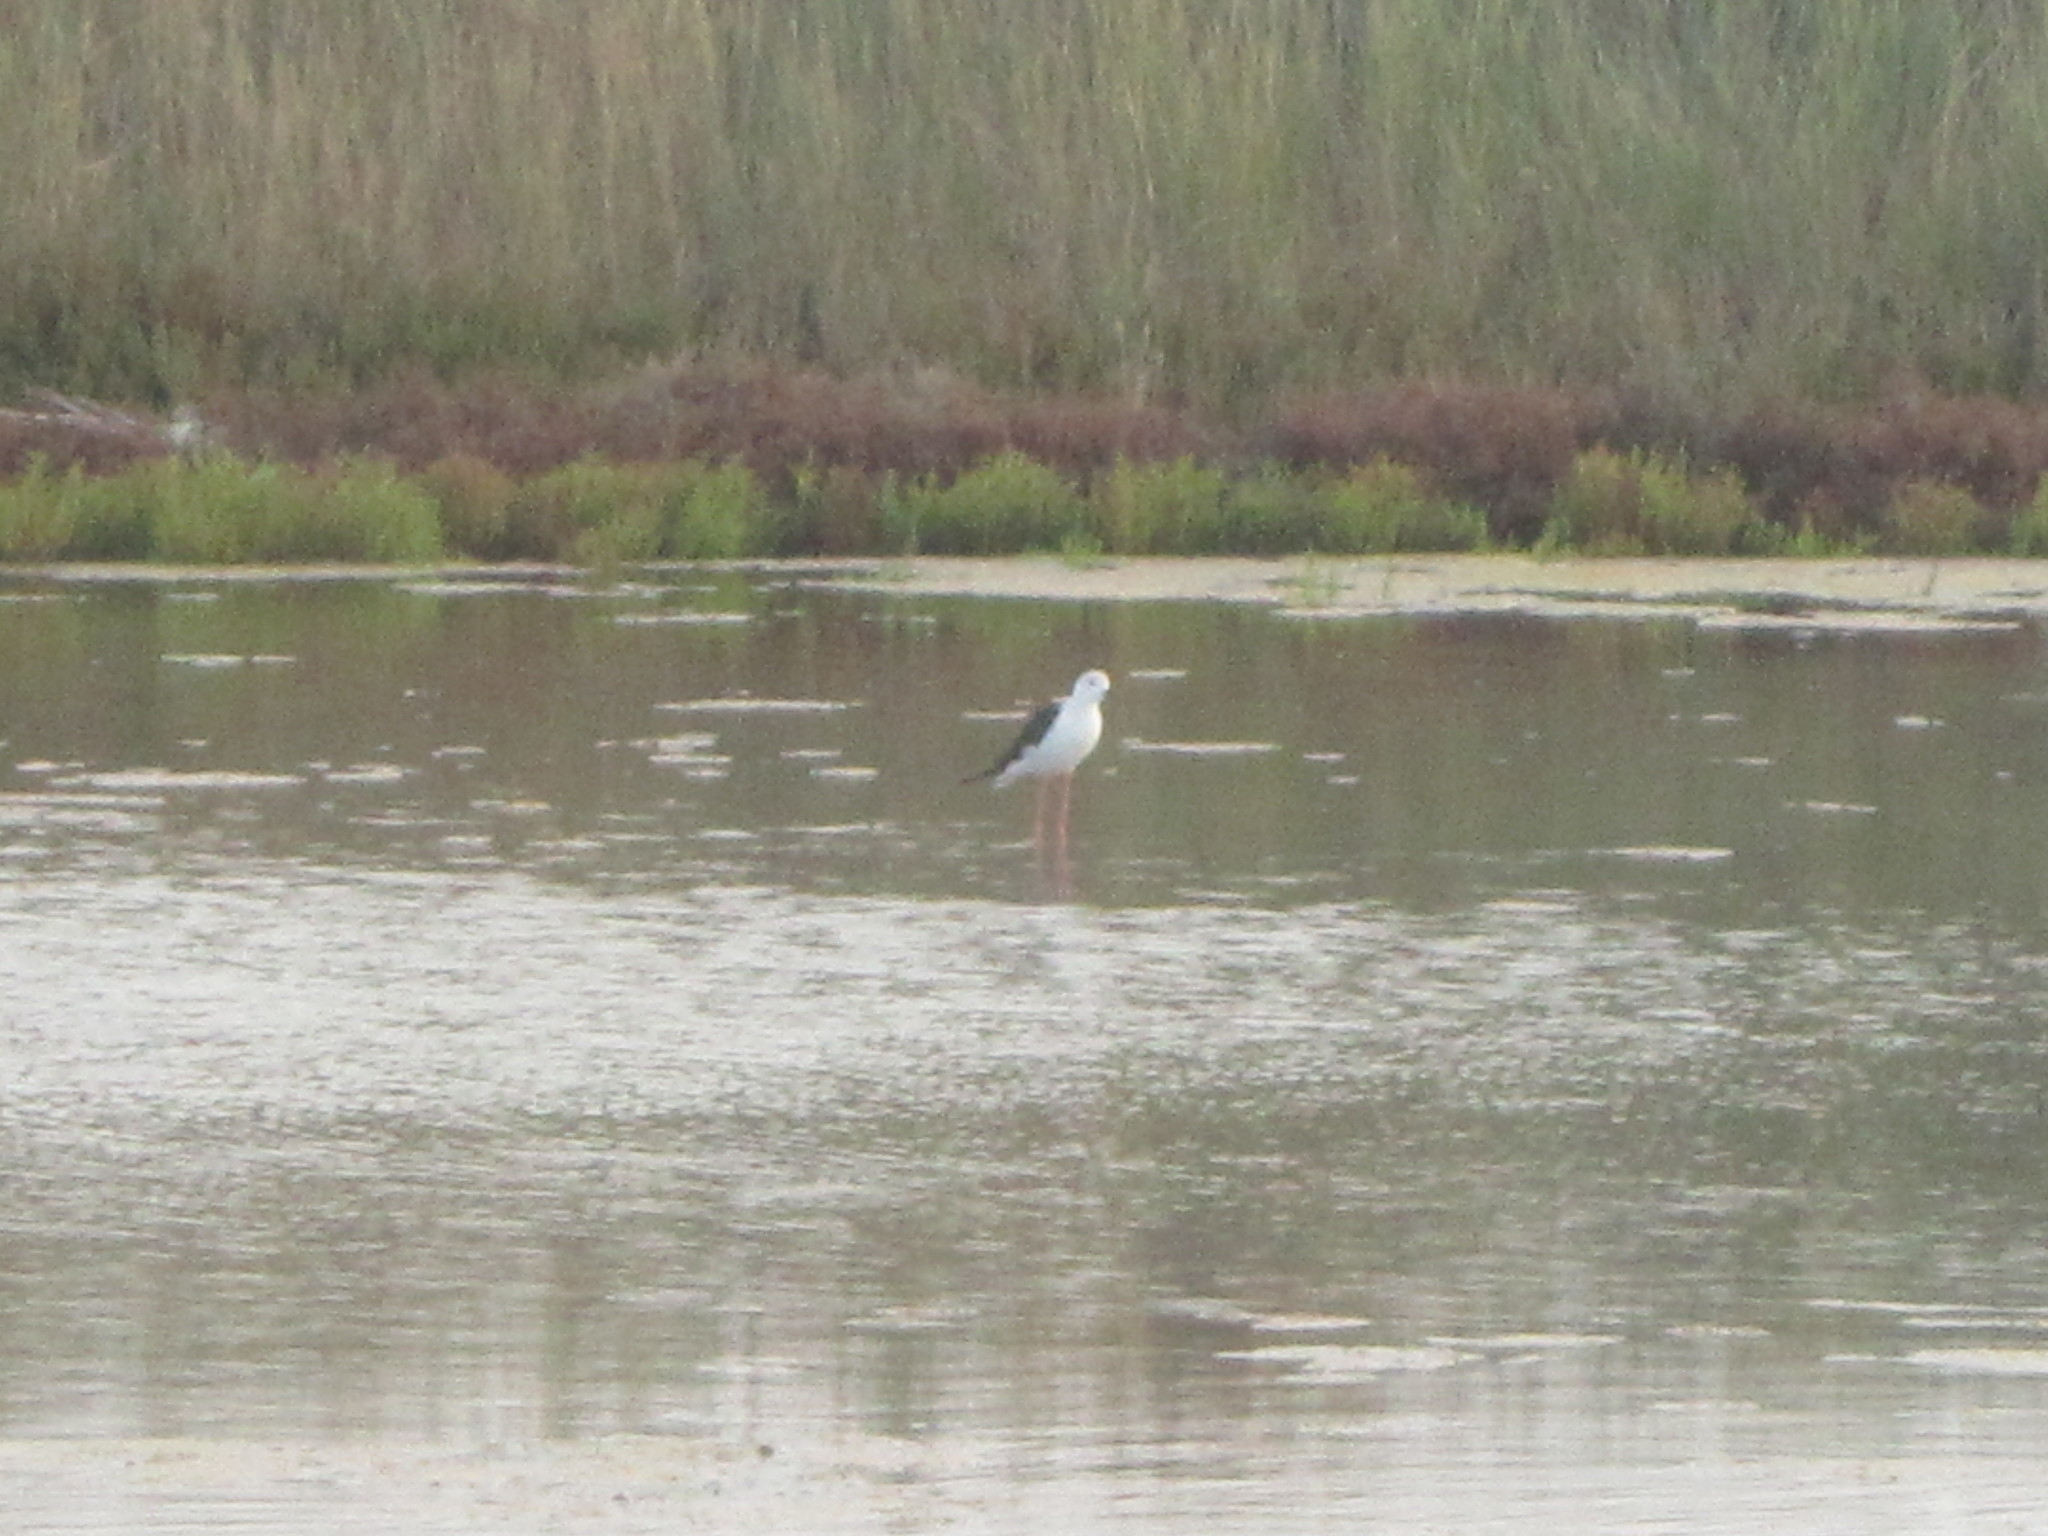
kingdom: Animalia
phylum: Chordata
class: Aves
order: Charadriiformes
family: Recurvirostridae
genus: Himantopus
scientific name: Himantopus himantopus
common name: Black-winged stilt
